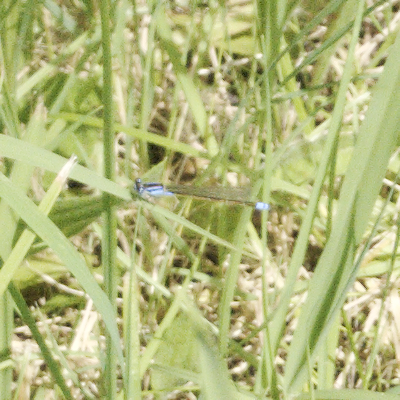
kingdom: Animalia
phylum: Arthropoda
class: Insecta
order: Odonata
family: Coenagrionidae
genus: Ischnura
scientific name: Ischnura heterosticta
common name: Common bluetail
